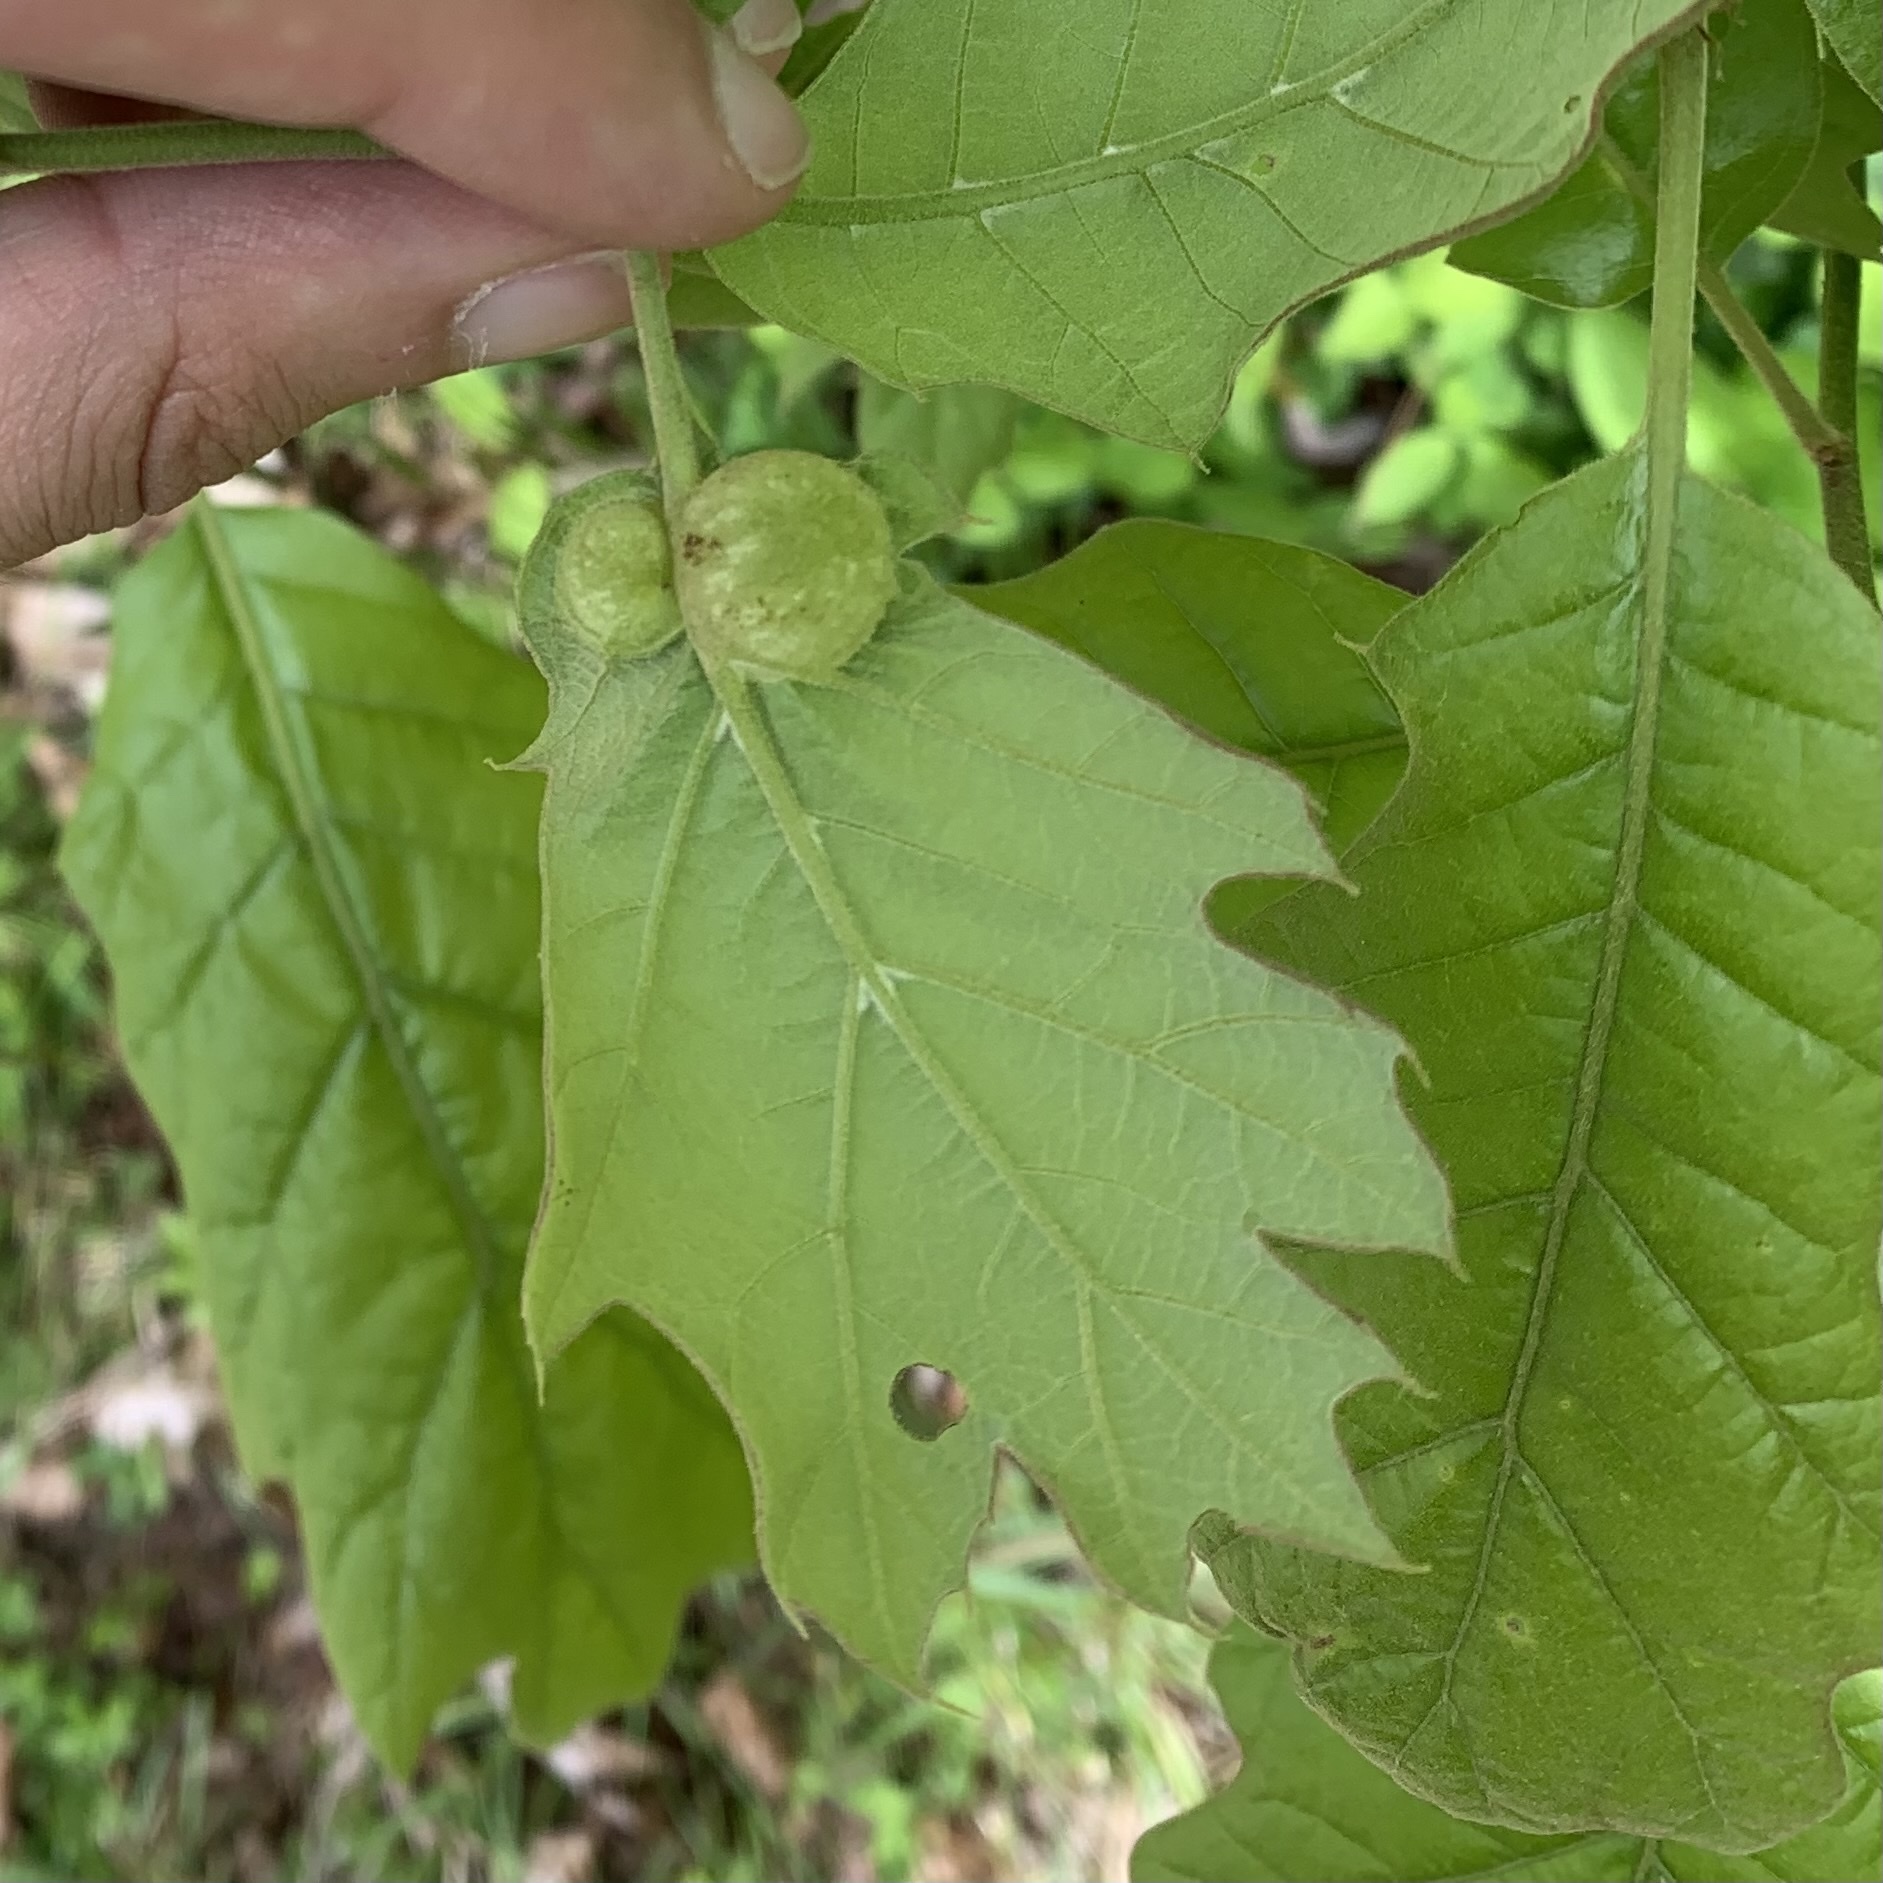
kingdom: Animalia
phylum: Arthropoda
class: Insecta
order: Hymenoptera
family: Cynipidae
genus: Dryocosmus
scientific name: Dryocosmus quercuspalustris
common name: Succulent oak gall wasp
